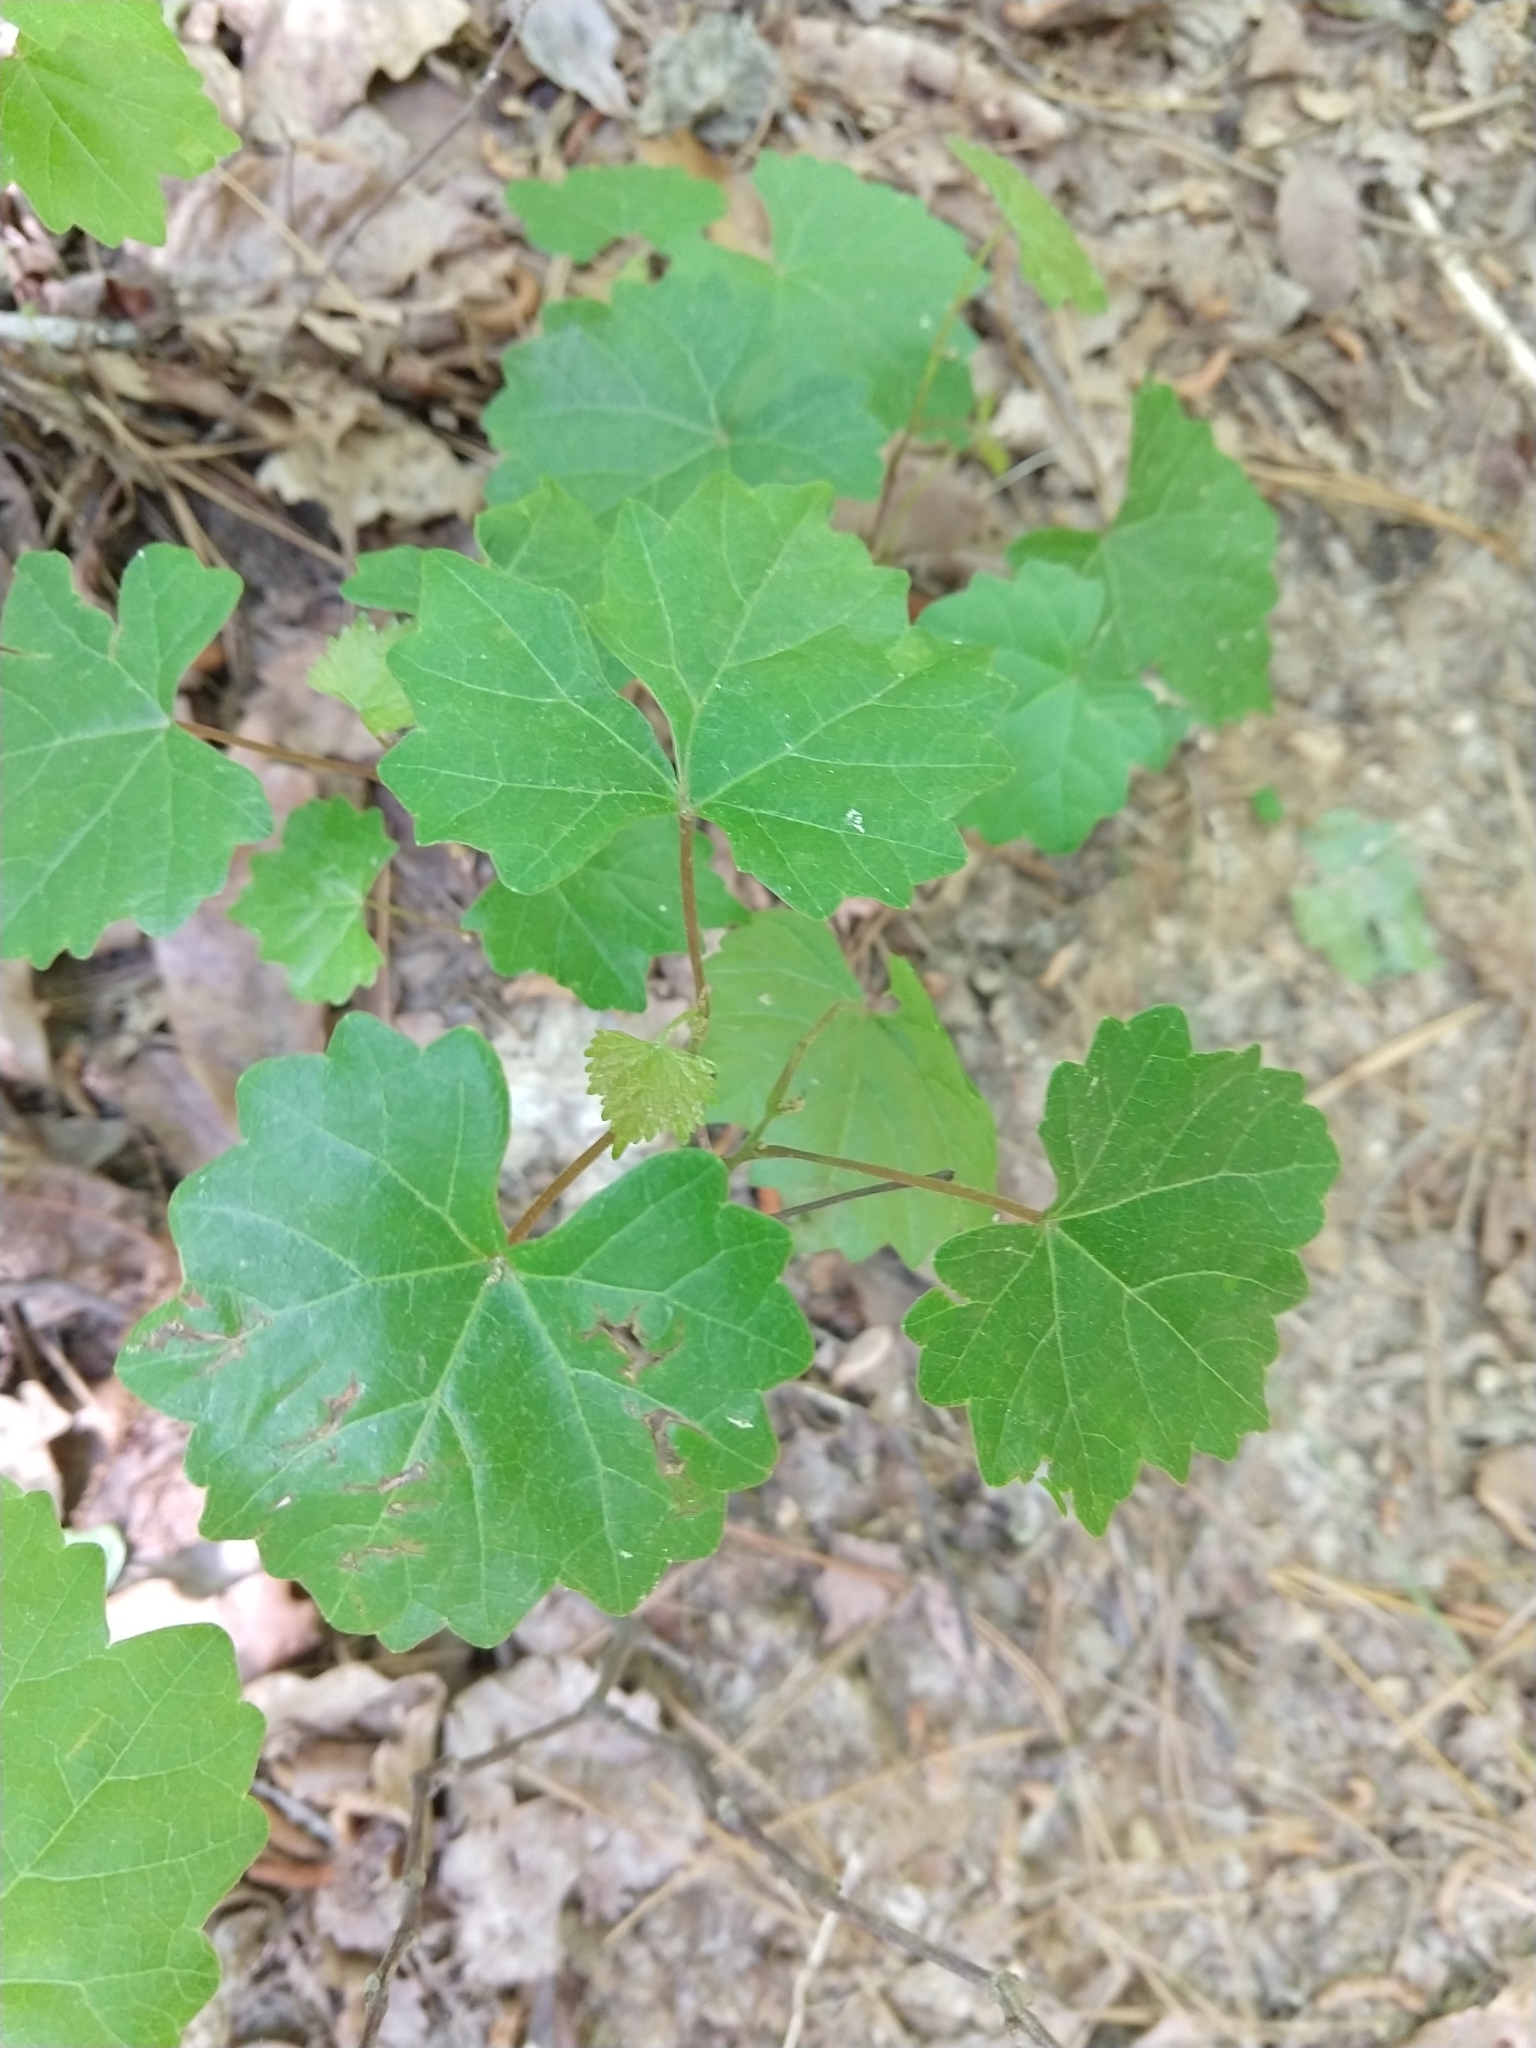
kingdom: Plantae
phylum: Tracheophyta
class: Magnoliopsida
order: Vitales
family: Vitaceae
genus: Vitis
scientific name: Vitis rotundifolia
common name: Muscadine grape
